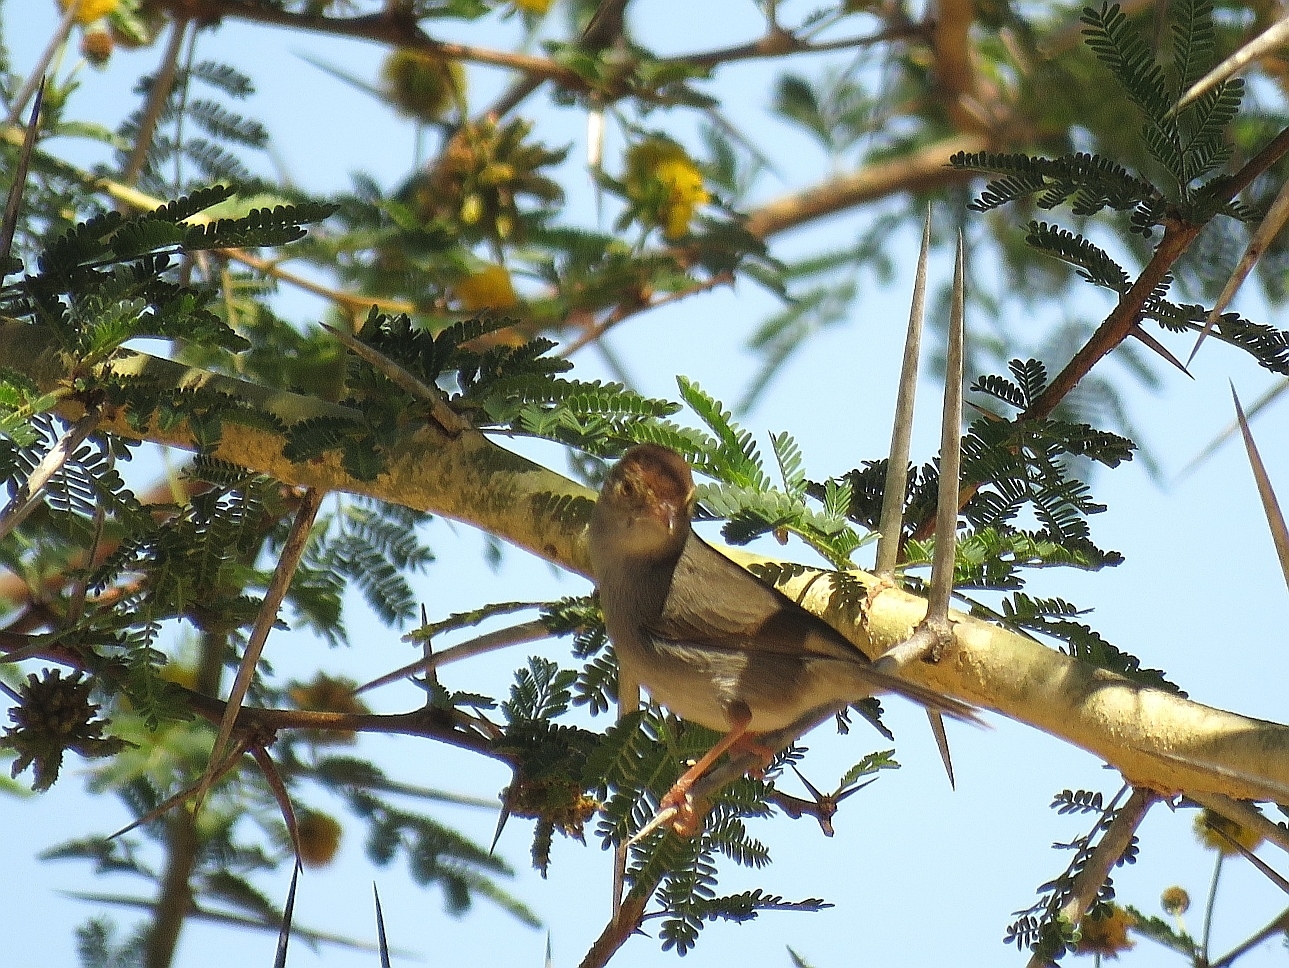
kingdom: Animalia
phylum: Chordata
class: Aves
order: Passeriformes
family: Cisticolidae
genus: Cisticola
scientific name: Cisticola fulvicapilla
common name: Neddicky
